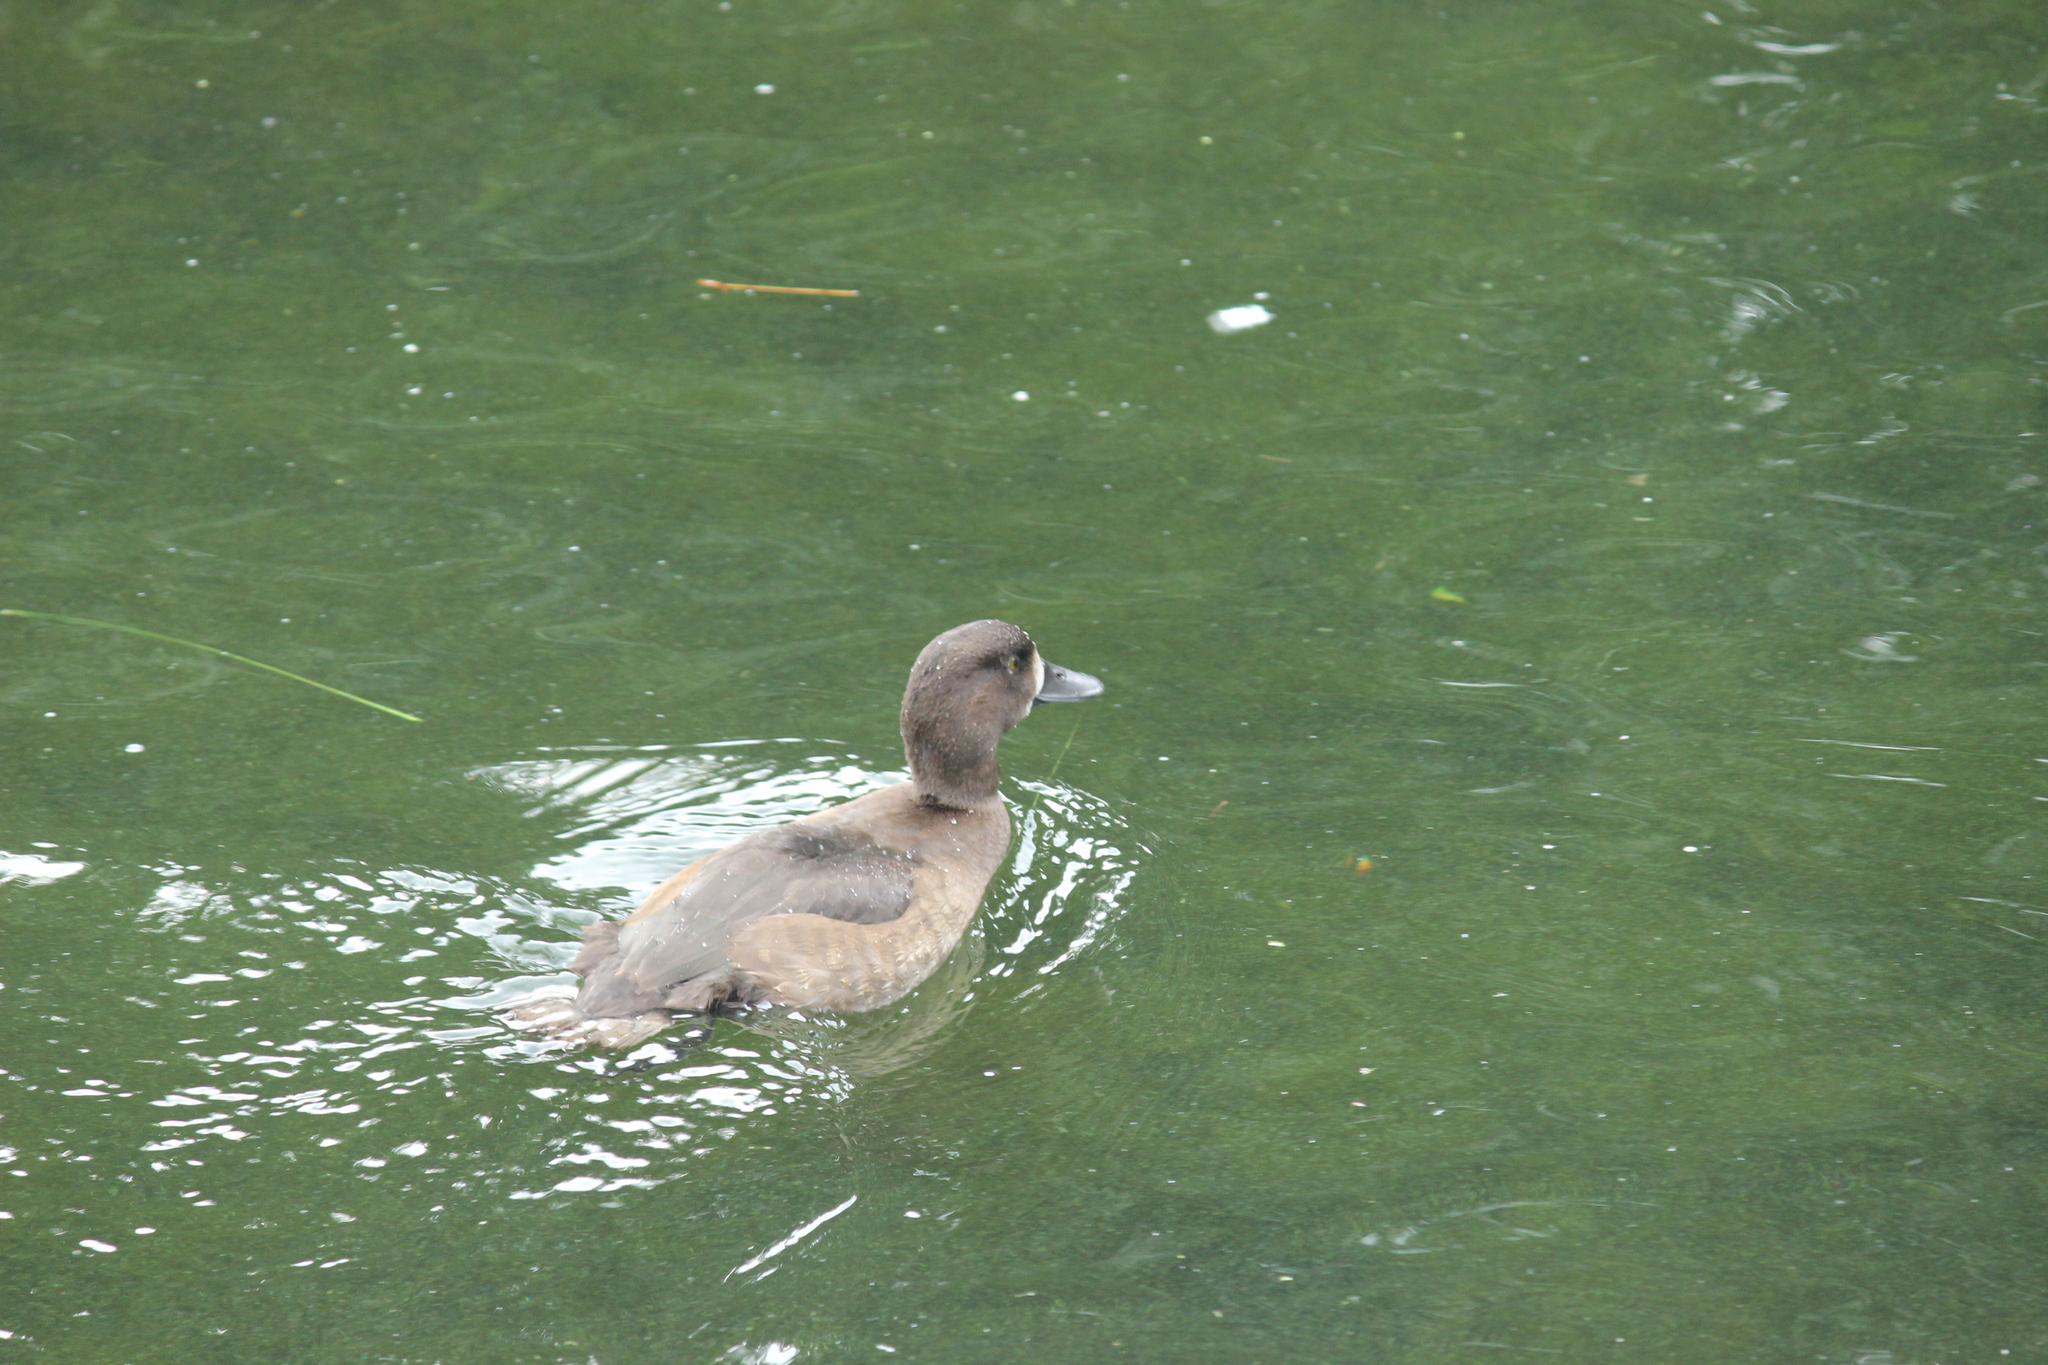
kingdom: Animalia
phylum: Chordata
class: Aves
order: Anseriformes
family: Anatidae
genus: Aythya
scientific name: Aythya fuligula
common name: Tufted duck
